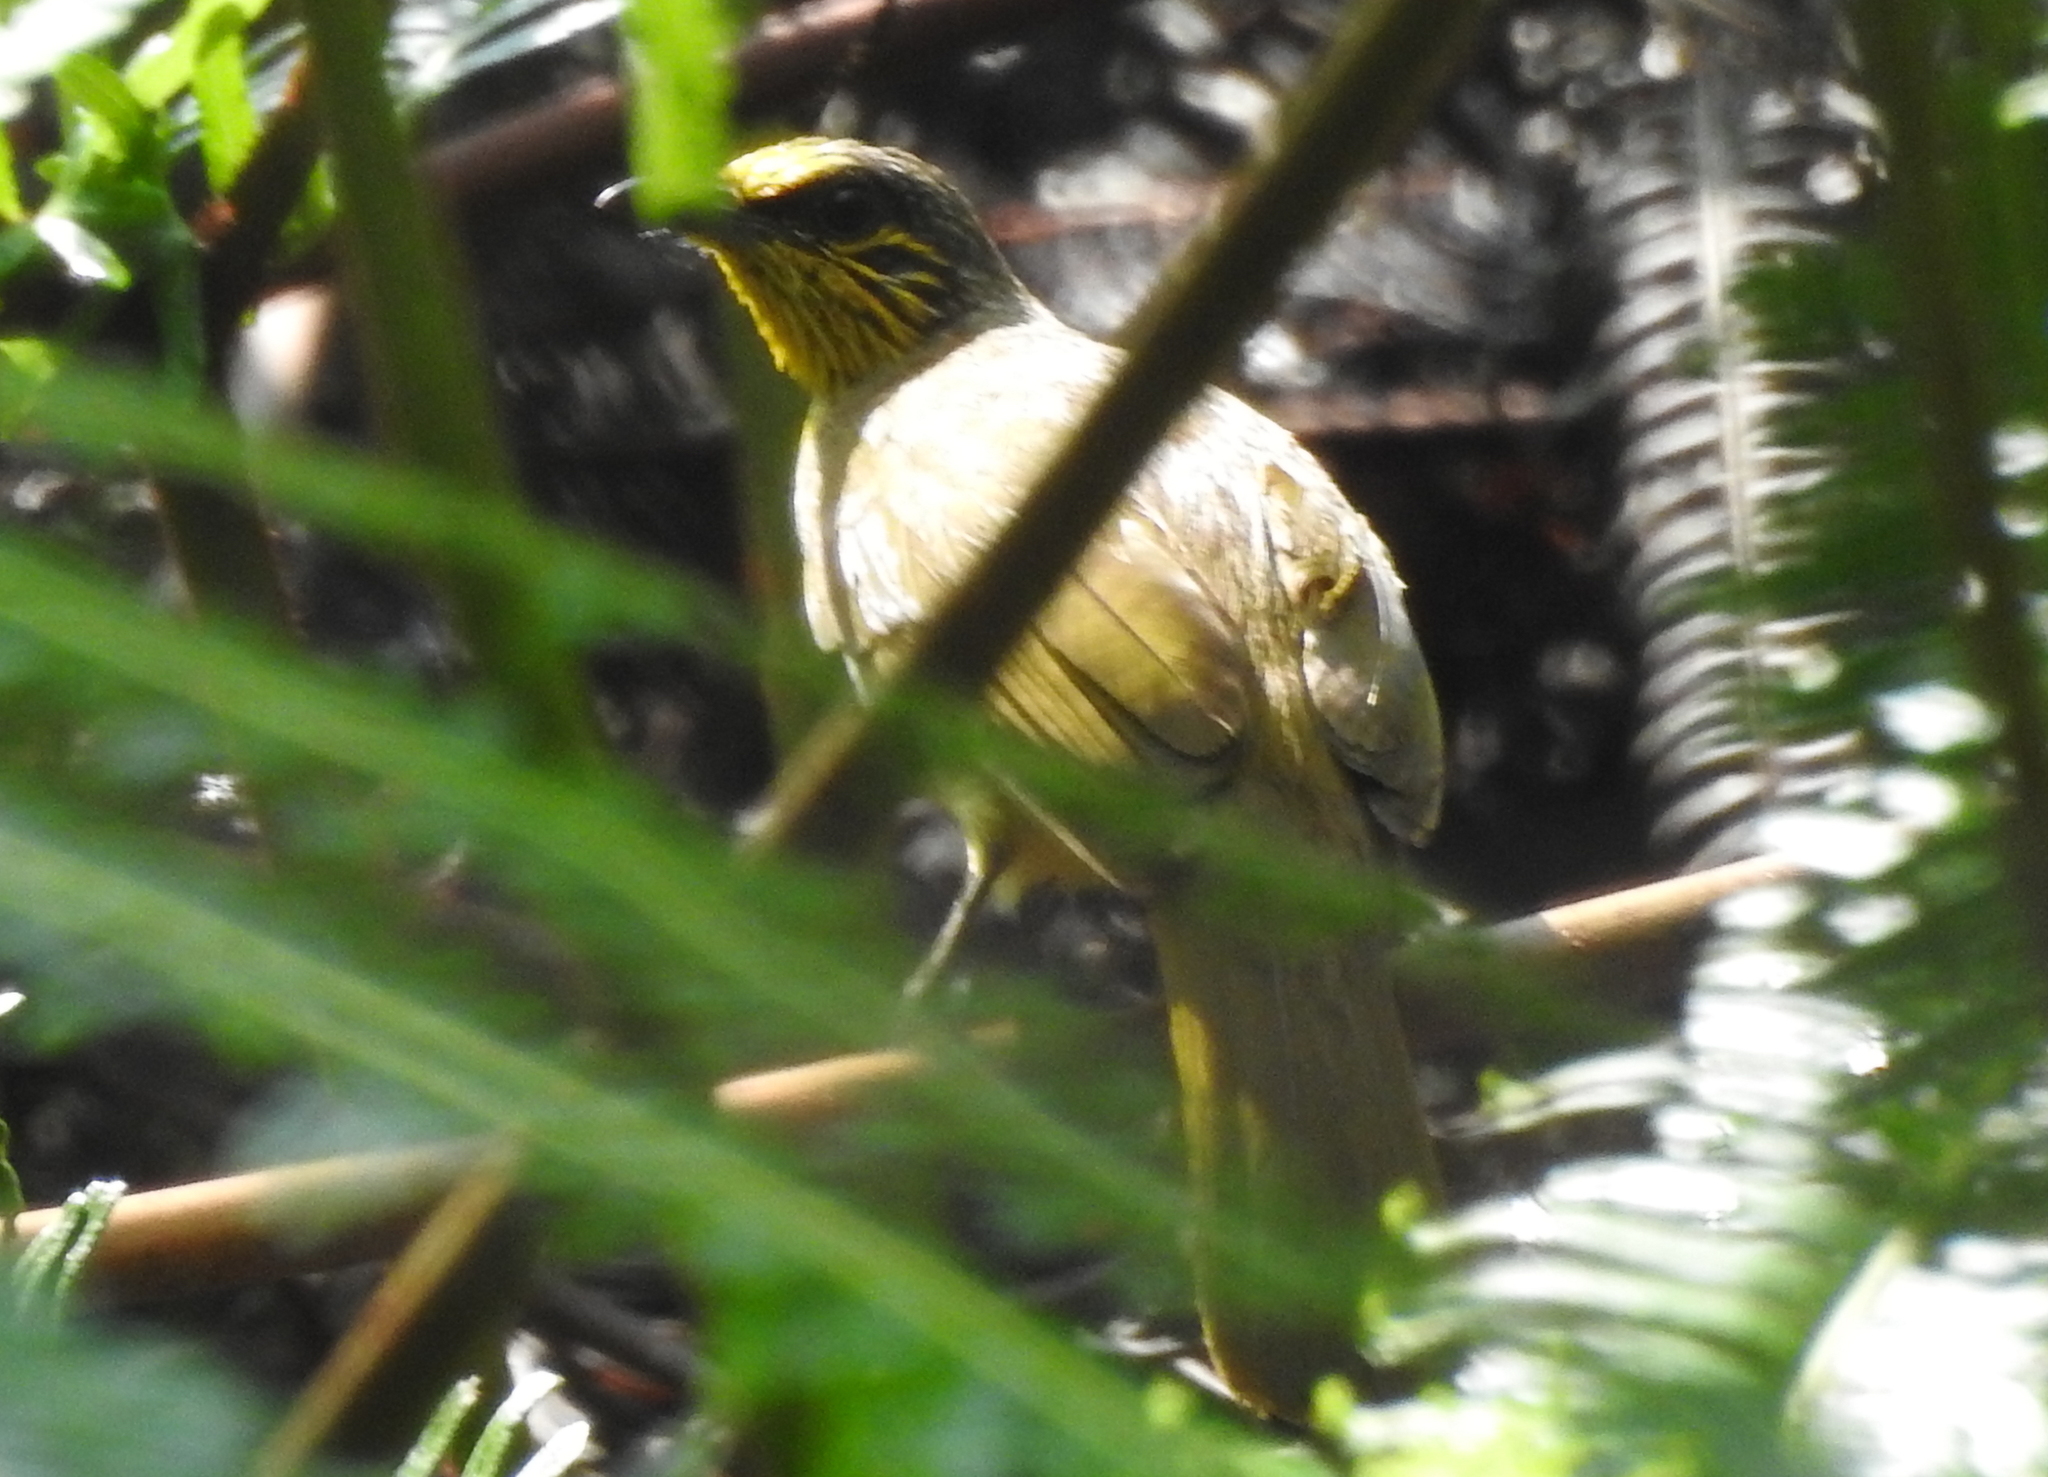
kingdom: Animalia
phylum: Chordata
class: Aves
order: Passeriformes
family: Pycnonotidae
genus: Pycnonotus
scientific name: Pycnonotus finlaysoni
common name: Stripe-throated bulbul
